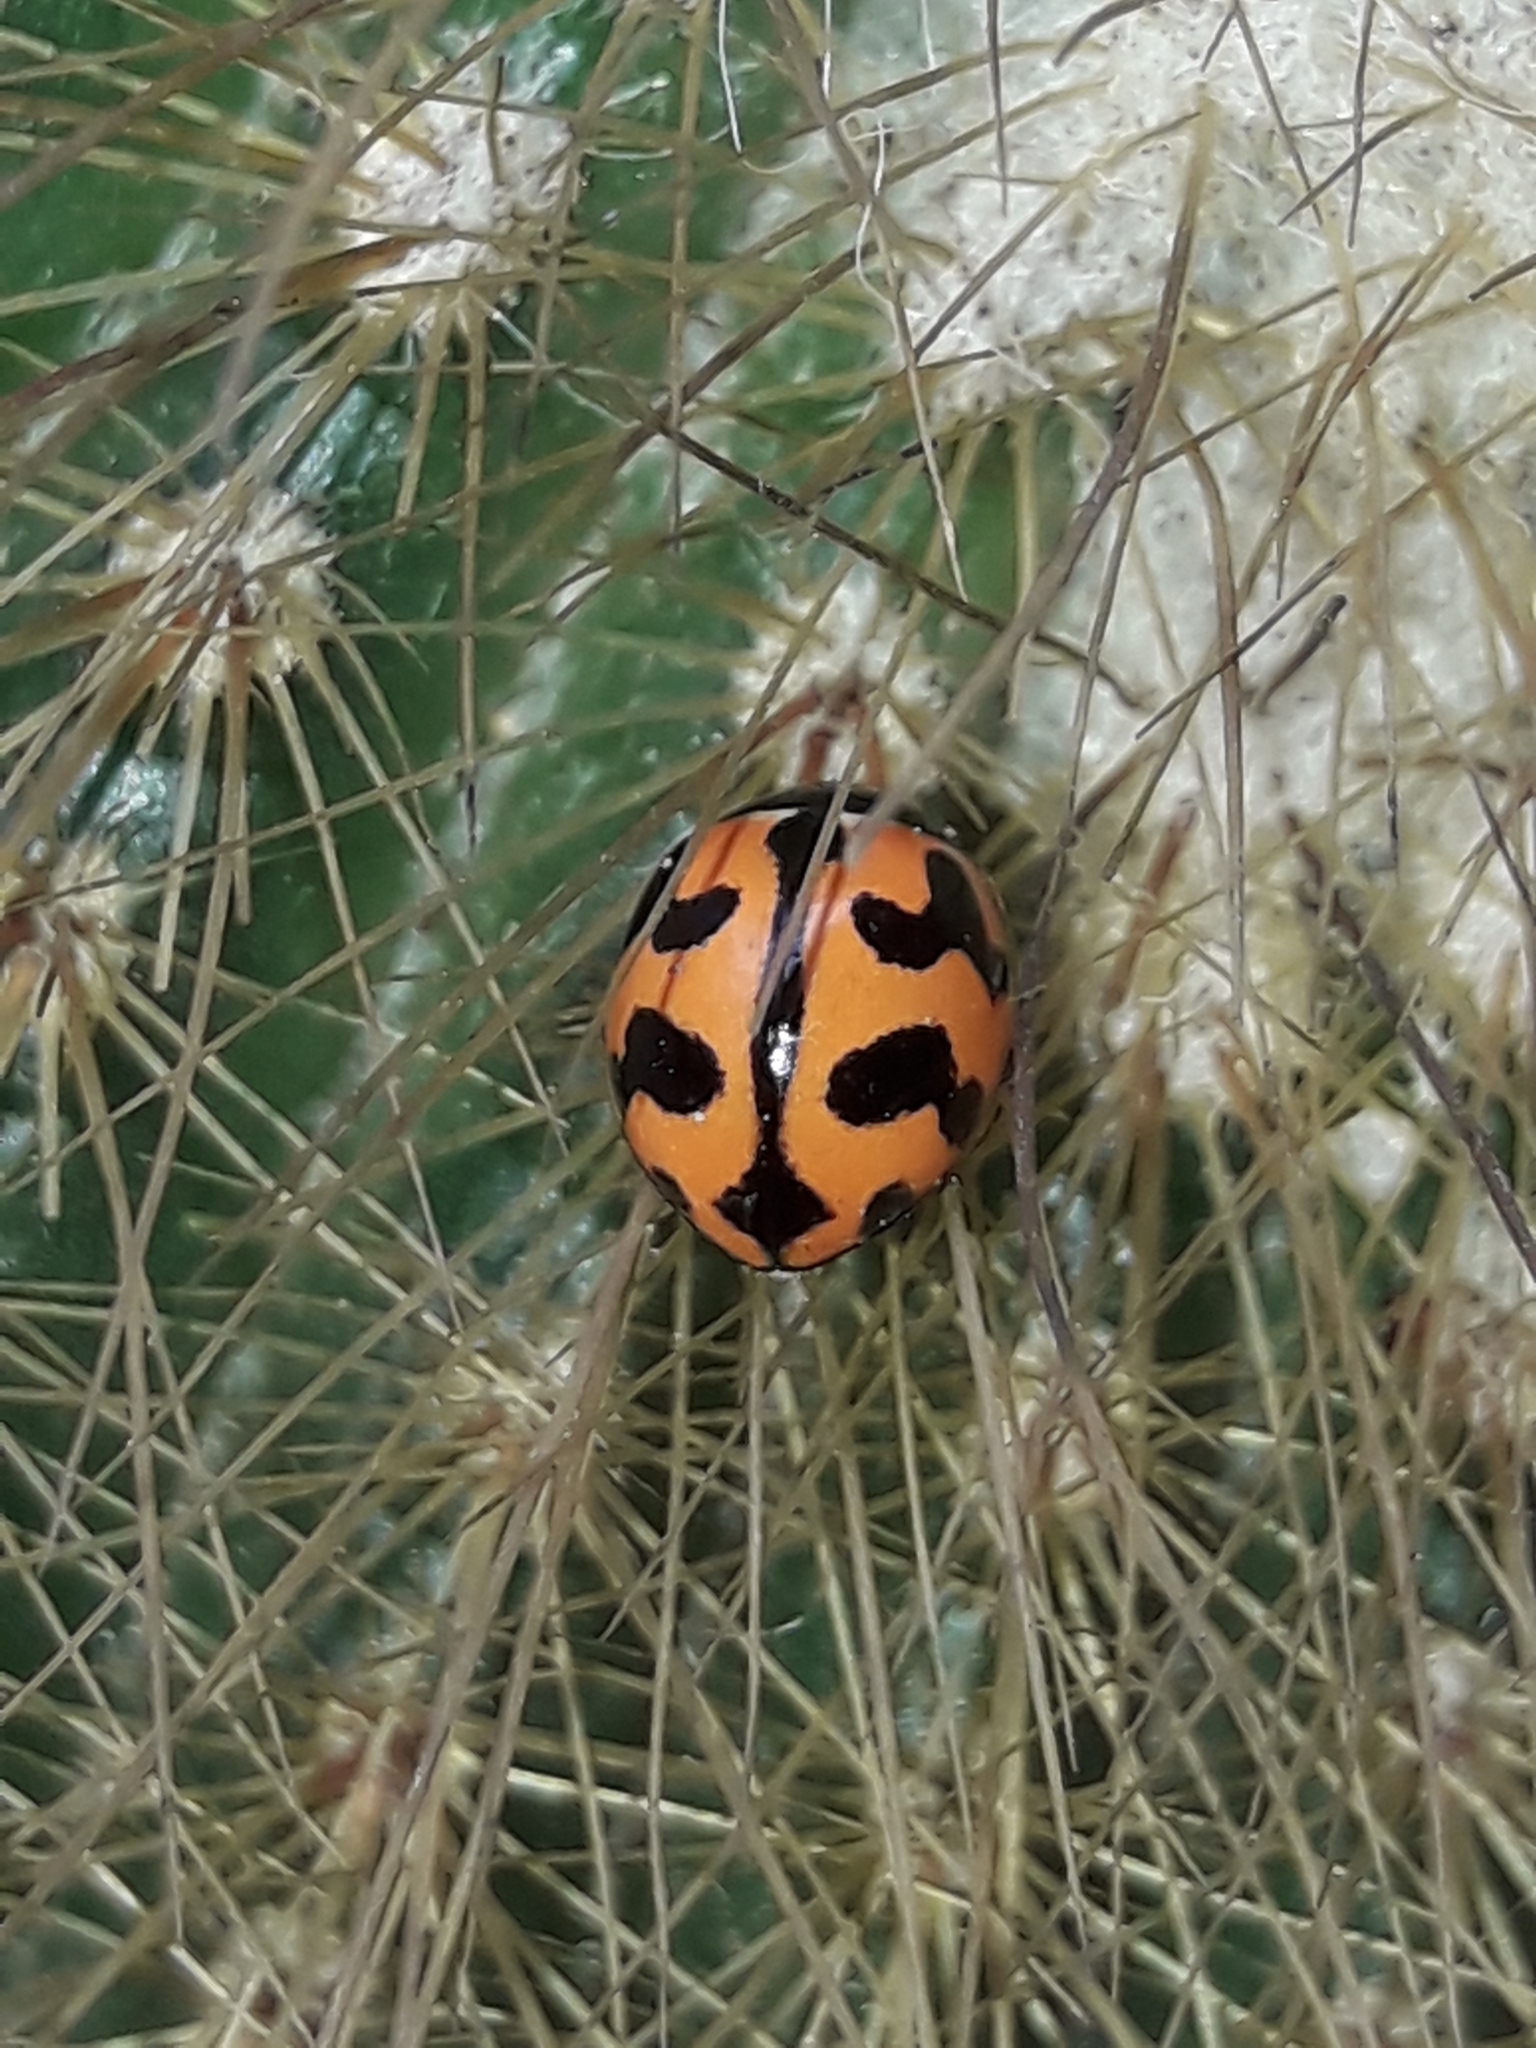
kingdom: Animalia
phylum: Arthropoda
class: Insecta
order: Coleoptera
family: Coccinellidae
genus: Coccinella
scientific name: Coccinella transversalis
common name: Transverse lady beetle
